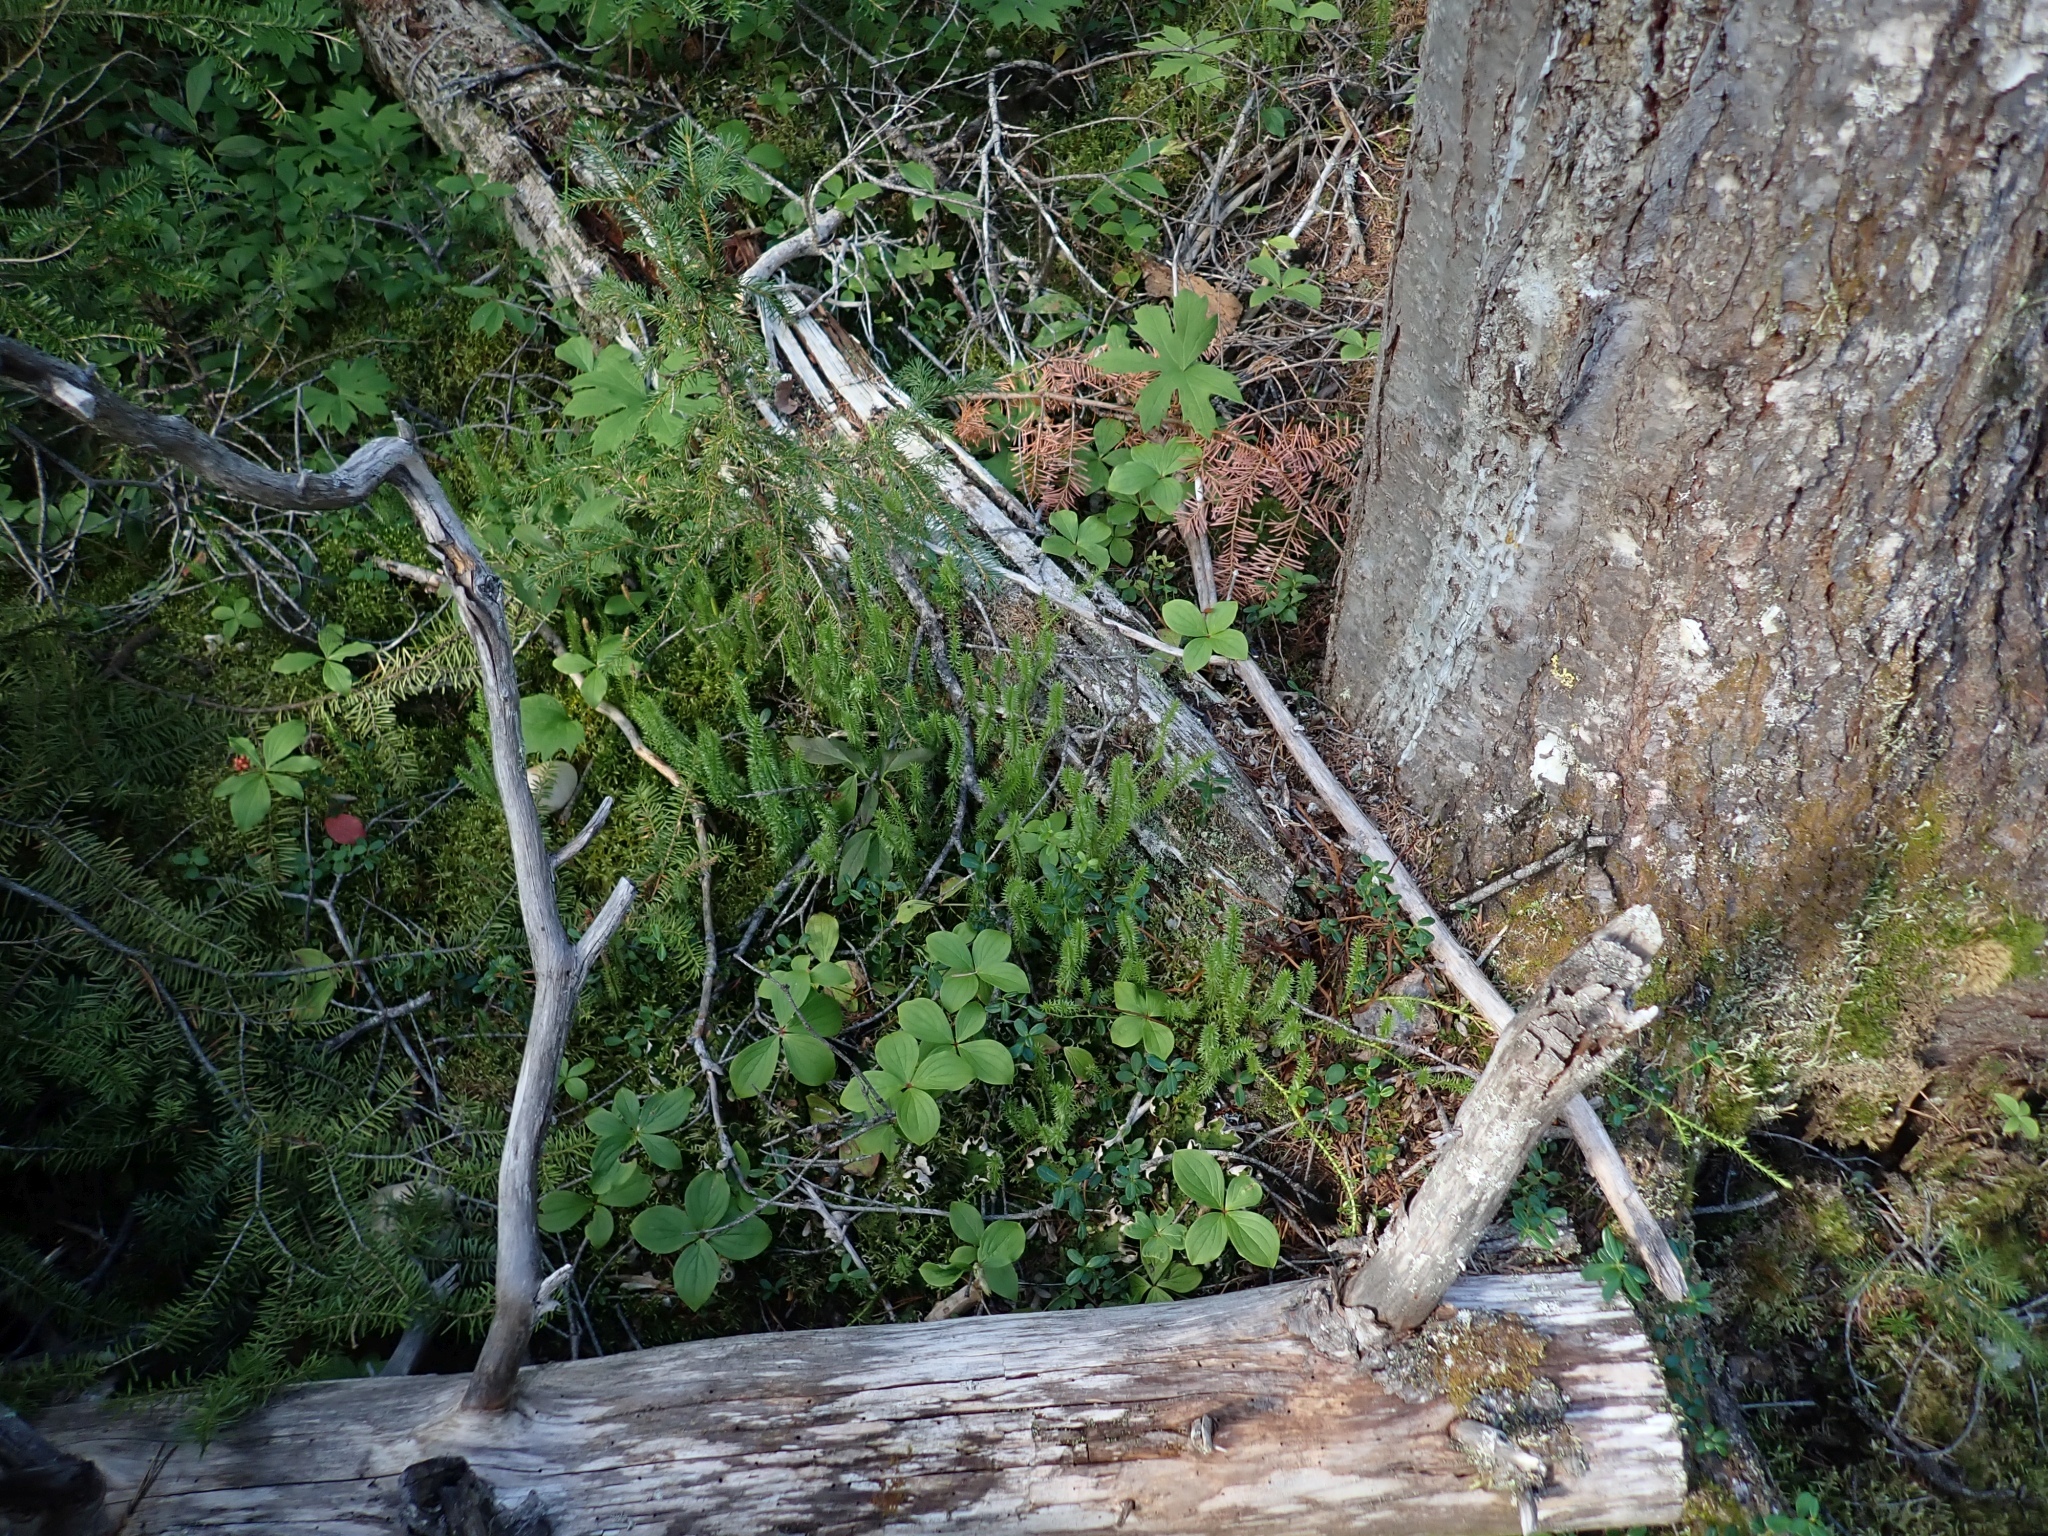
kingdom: Plantae
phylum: Tracheophyta
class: Lycopodiopsida
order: Lycopodiales
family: Lycopodiaceae
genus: Spinulum
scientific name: Spinulum annotinum
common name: Interrupted club-moss
